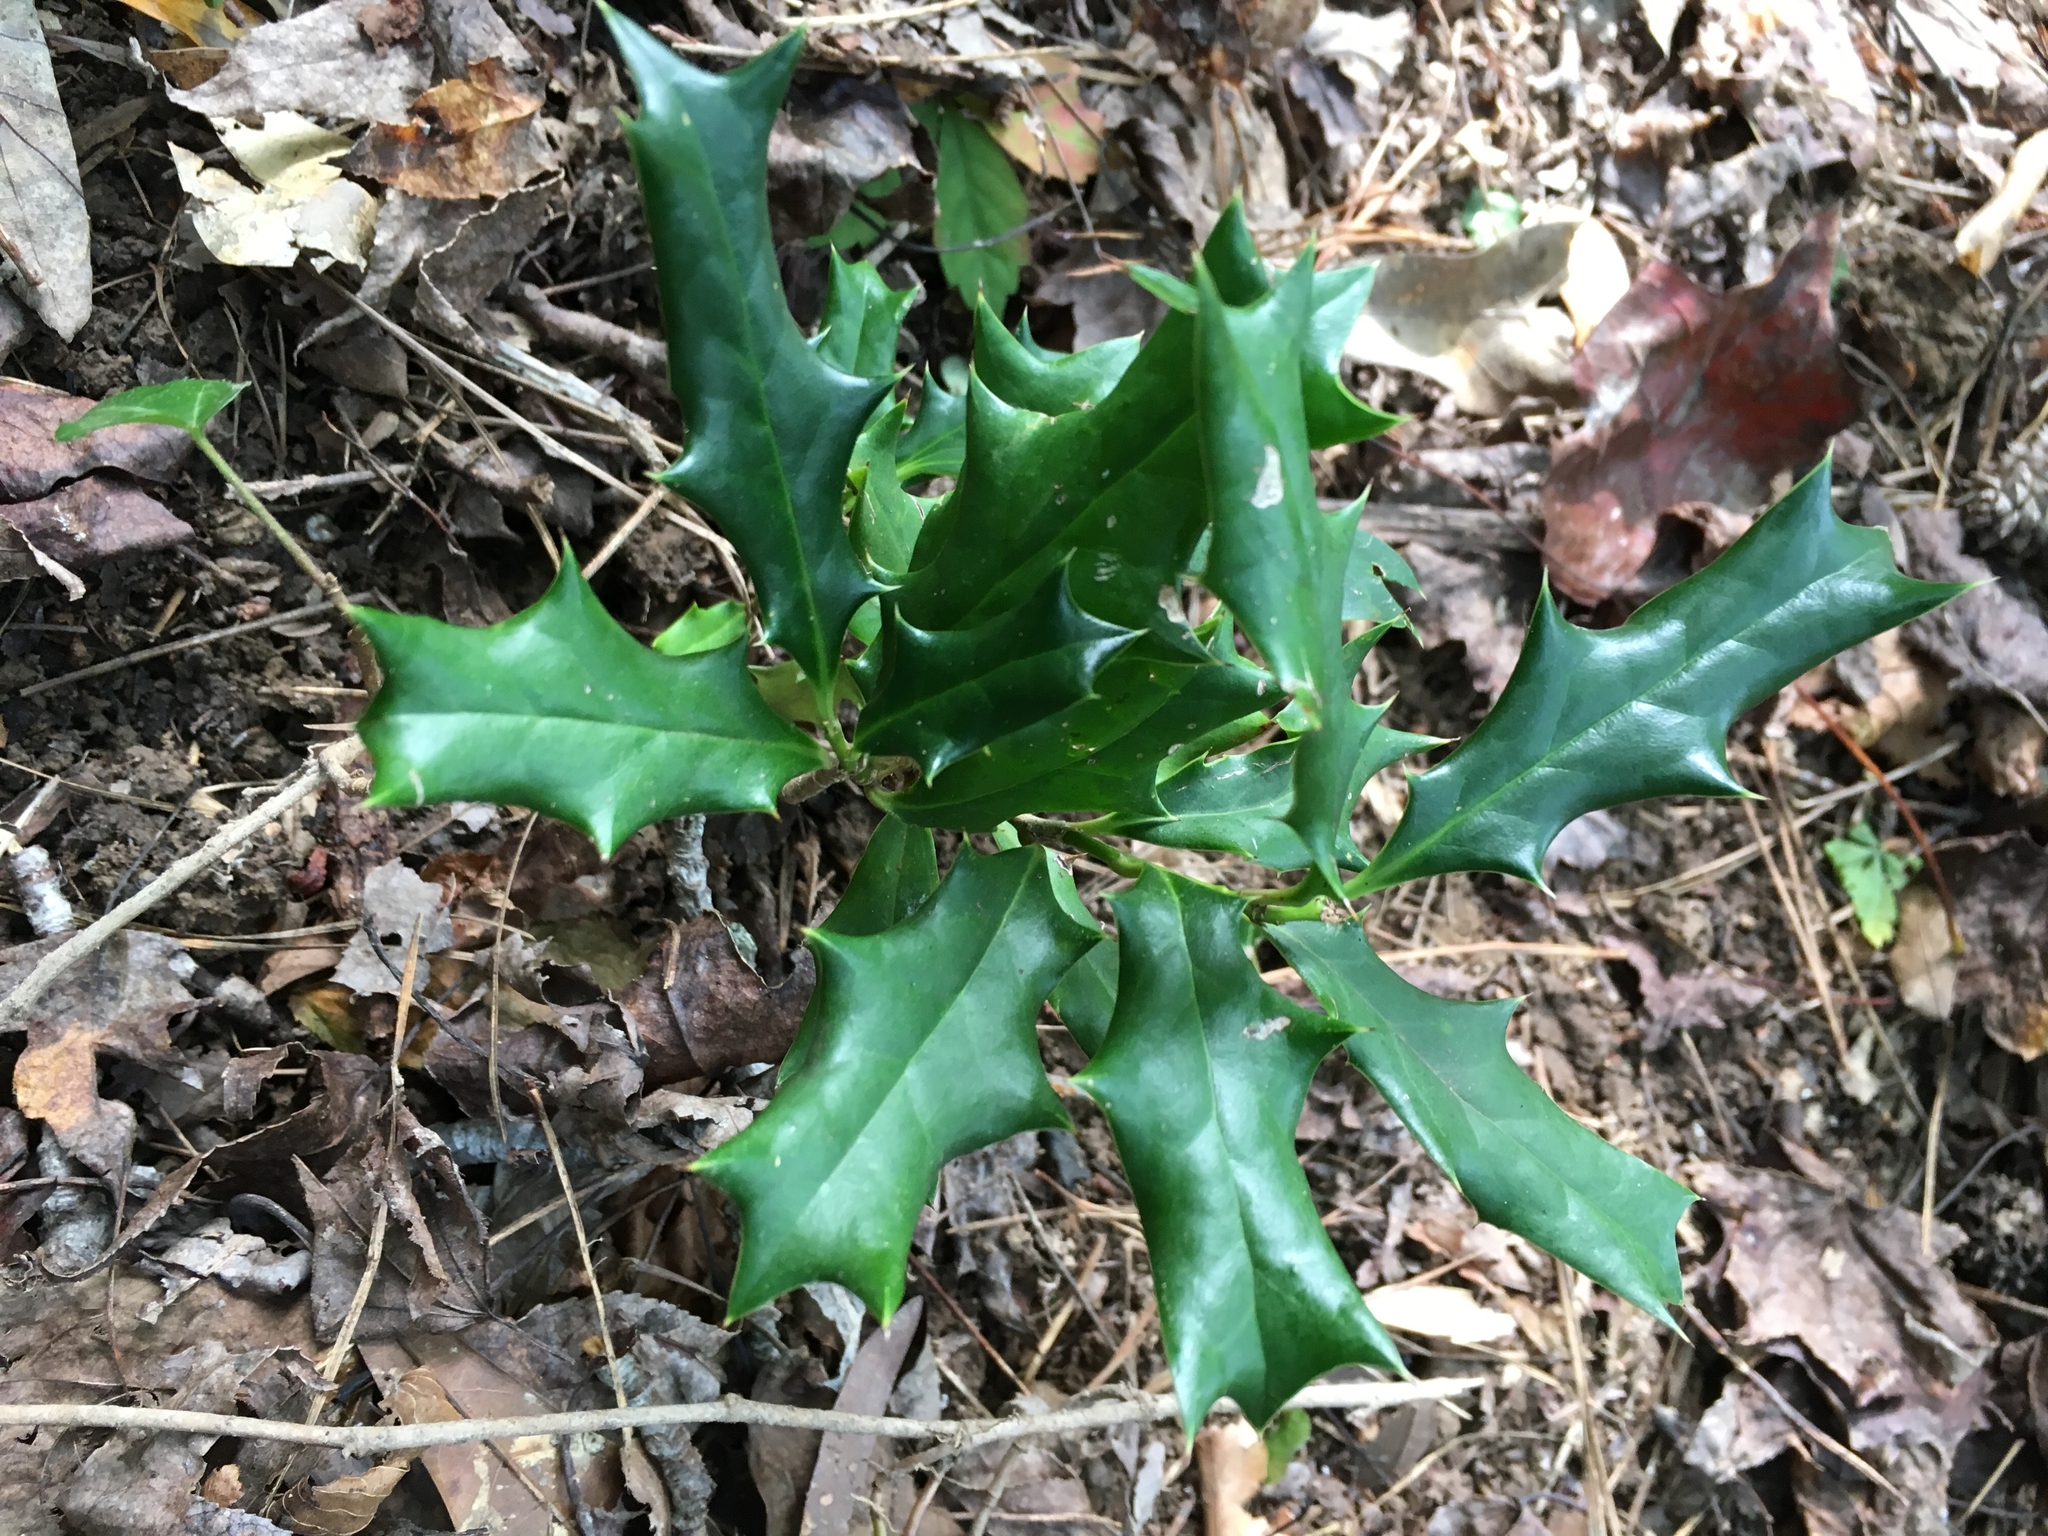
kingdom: Plantae
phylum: Tracheophyta
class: Magnoliopsida
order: Aquifoliales
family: Aquifoliaceae
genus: Ilex
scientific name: Ilex cornuta
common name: Chinese holly
